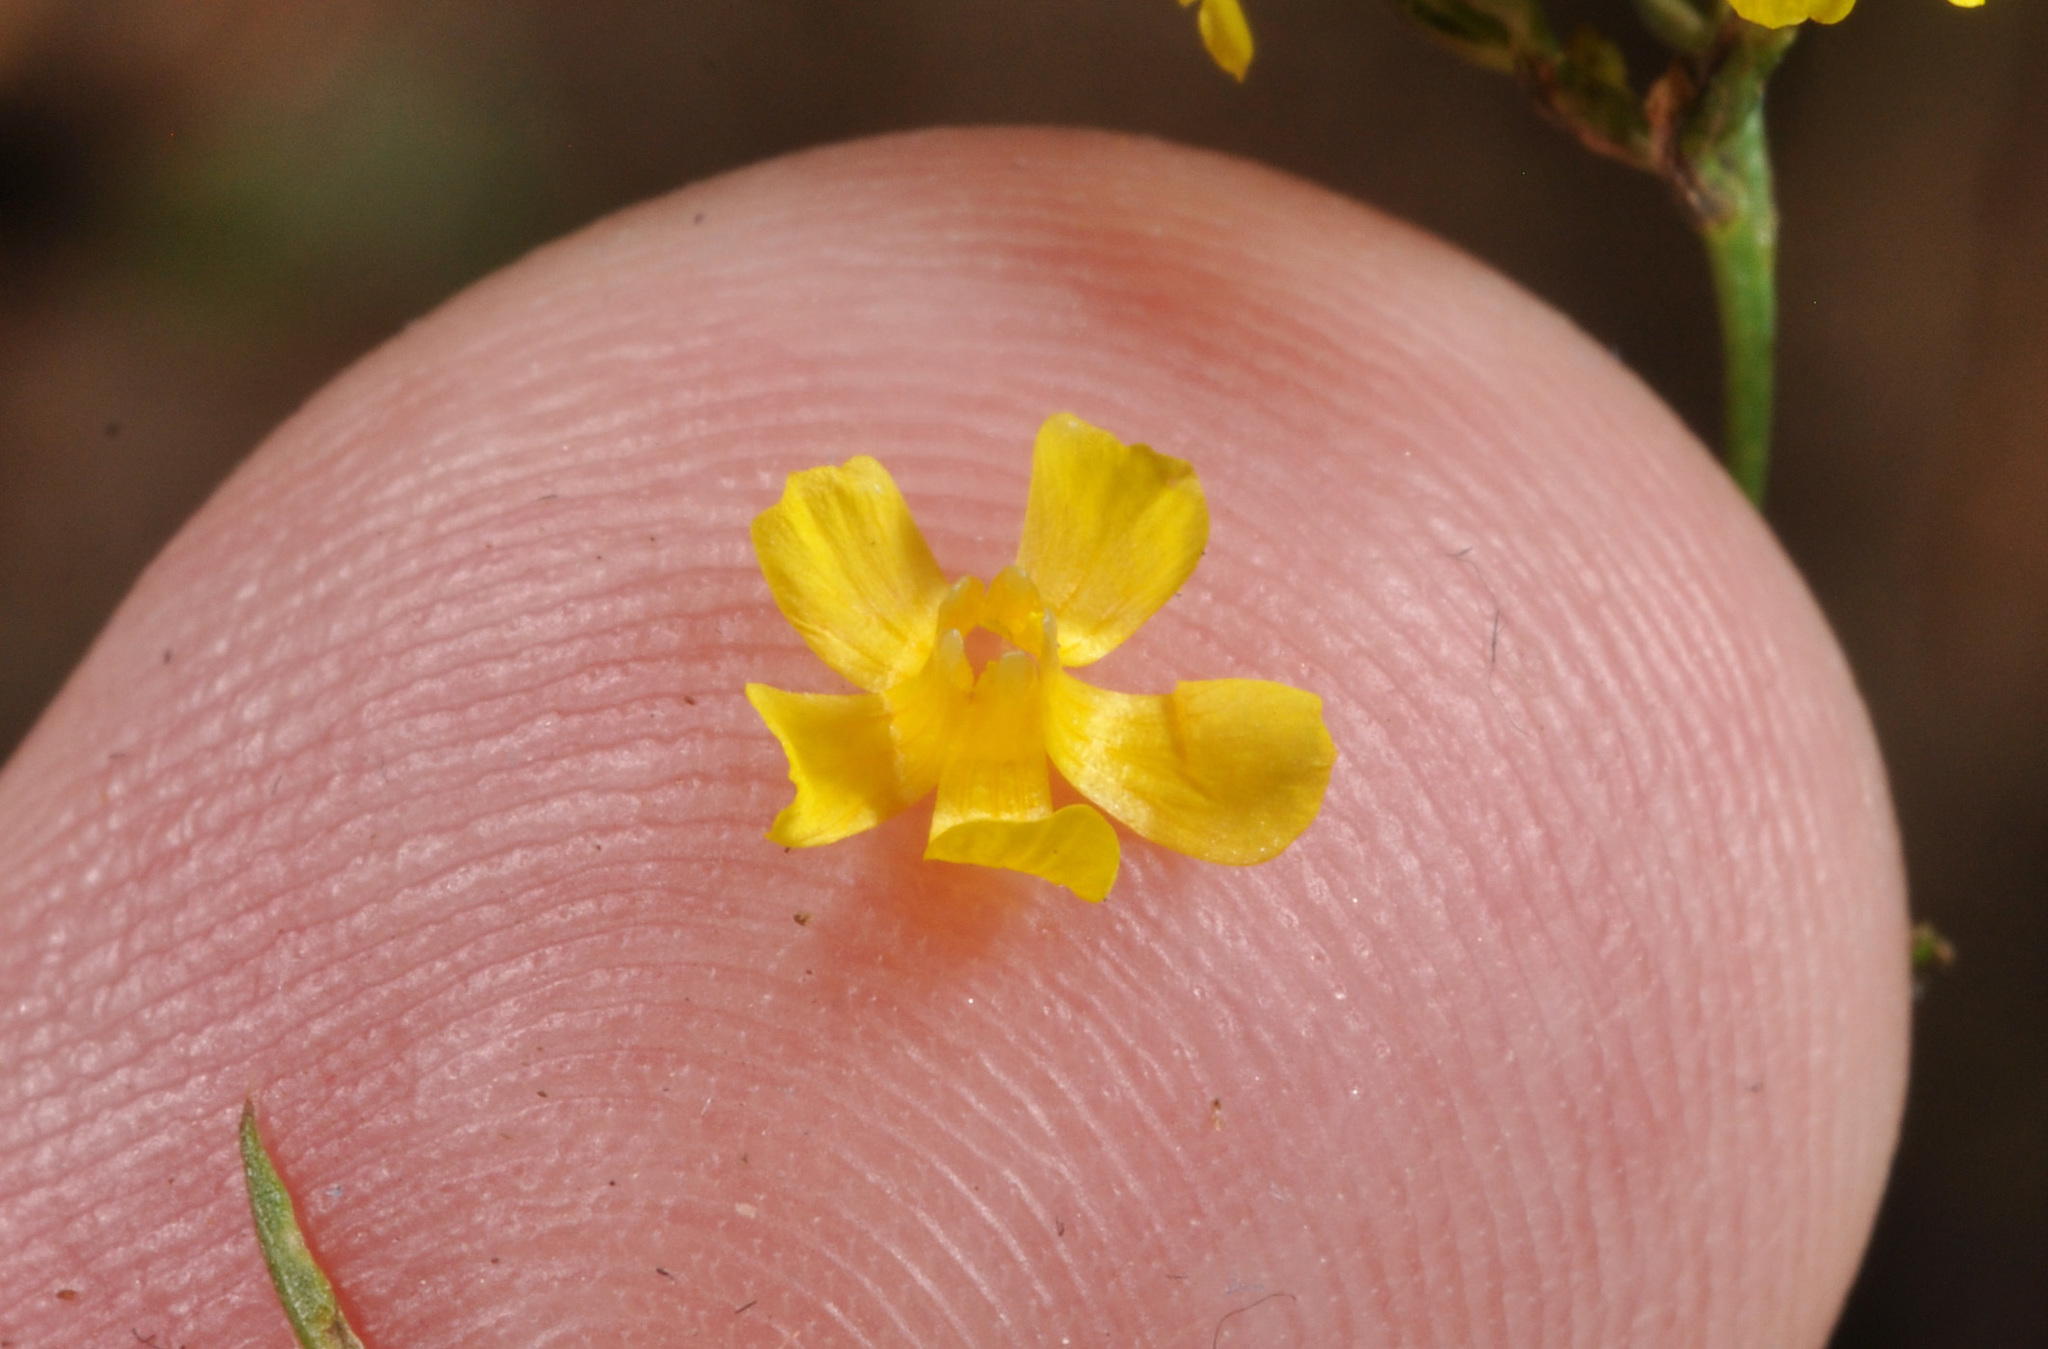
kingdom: Plantae
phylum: Tracheophyta
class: Magnoliopsida
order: Malpighiales
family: Linaceae
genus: Linum
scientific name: Linum trigynum
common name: French flax
